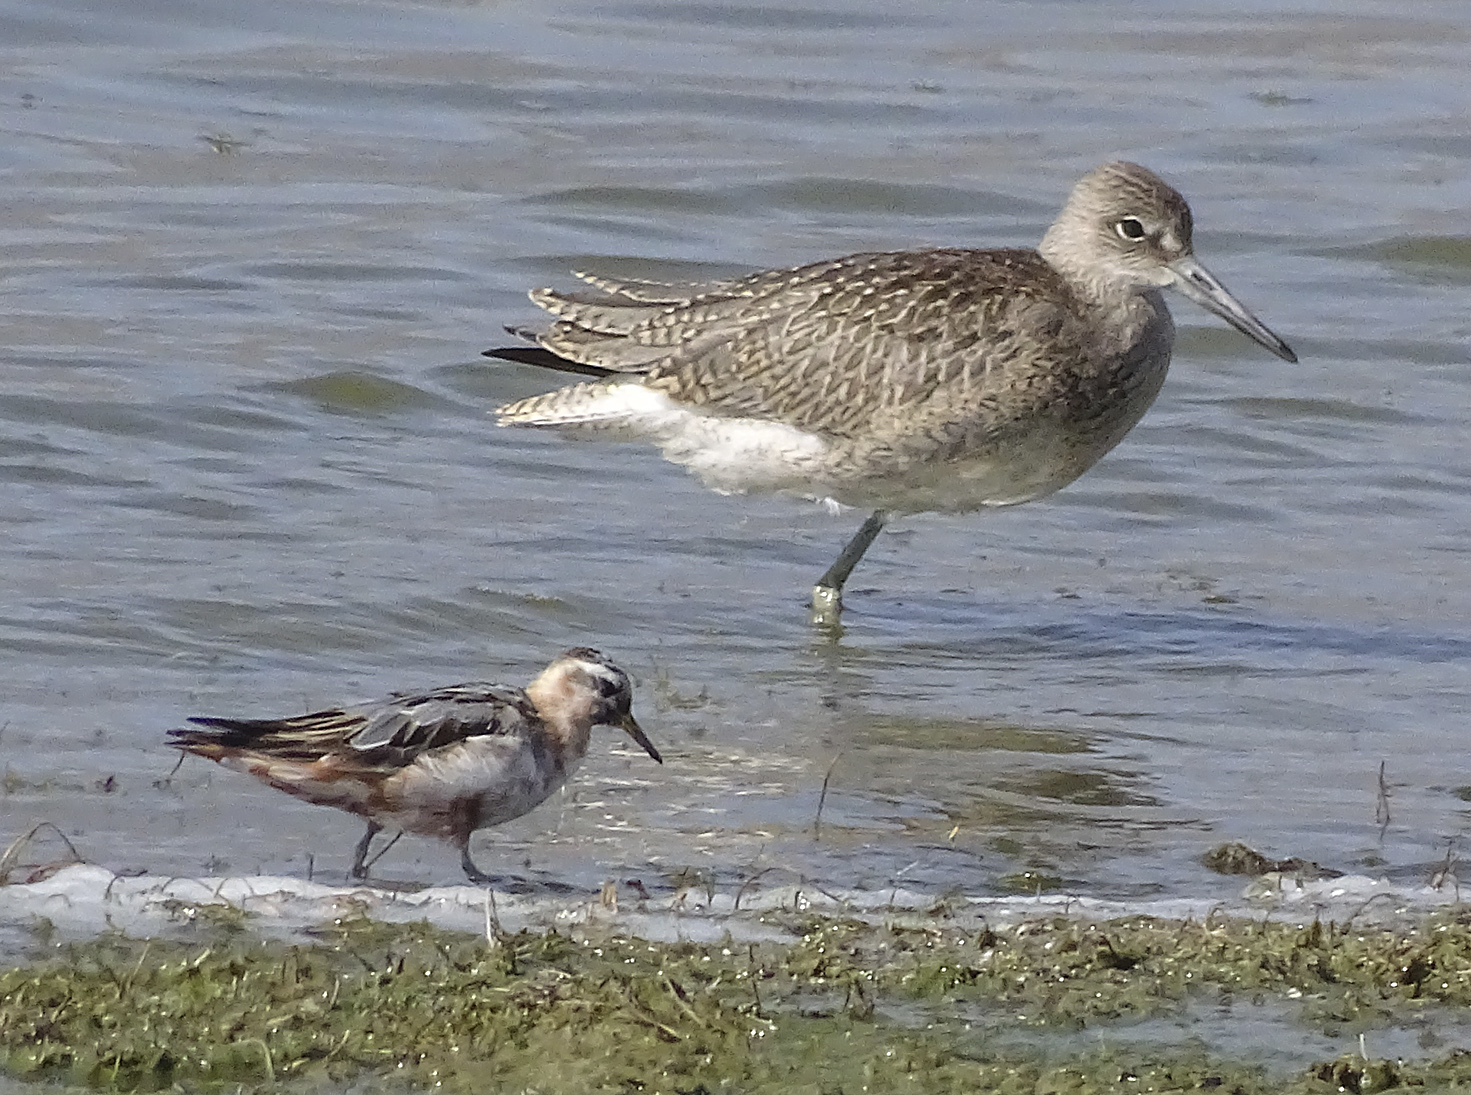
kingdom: Animalia
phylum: Chordata
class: Aves
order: Charadriiformes
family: Scolopacidae
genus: Phalaropus
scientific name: Phalaropus fulicarius
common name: Red phalarope
